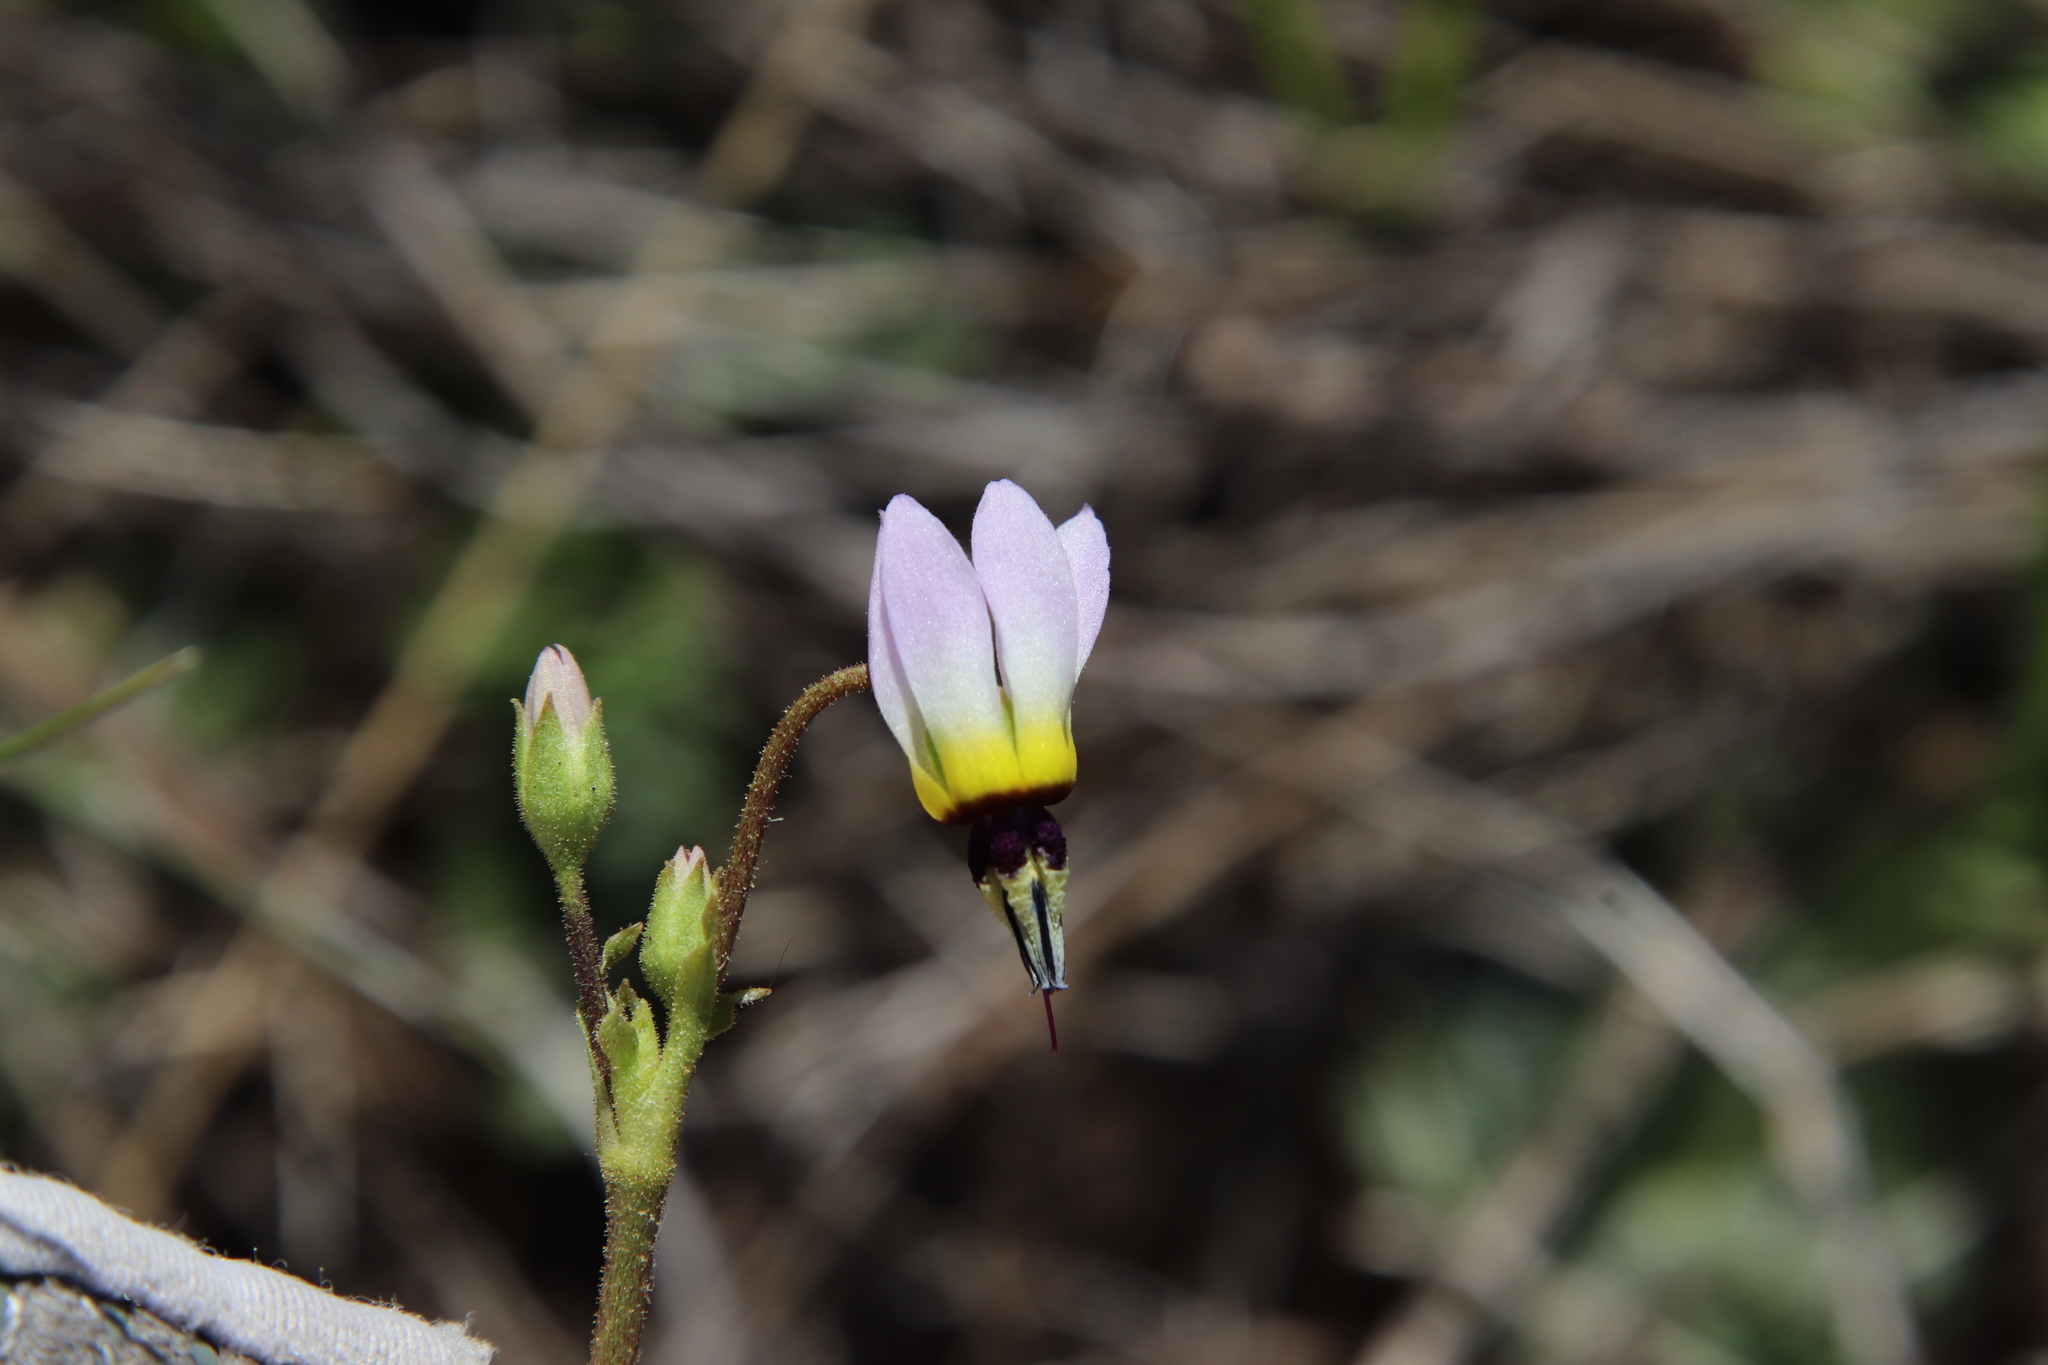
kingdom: Plantae
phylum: Tracheophyta
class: Magnoliopsida
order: Ericales
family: Primulaceae
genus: Dodecatheon
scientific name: Dodecatheon clevelandii
